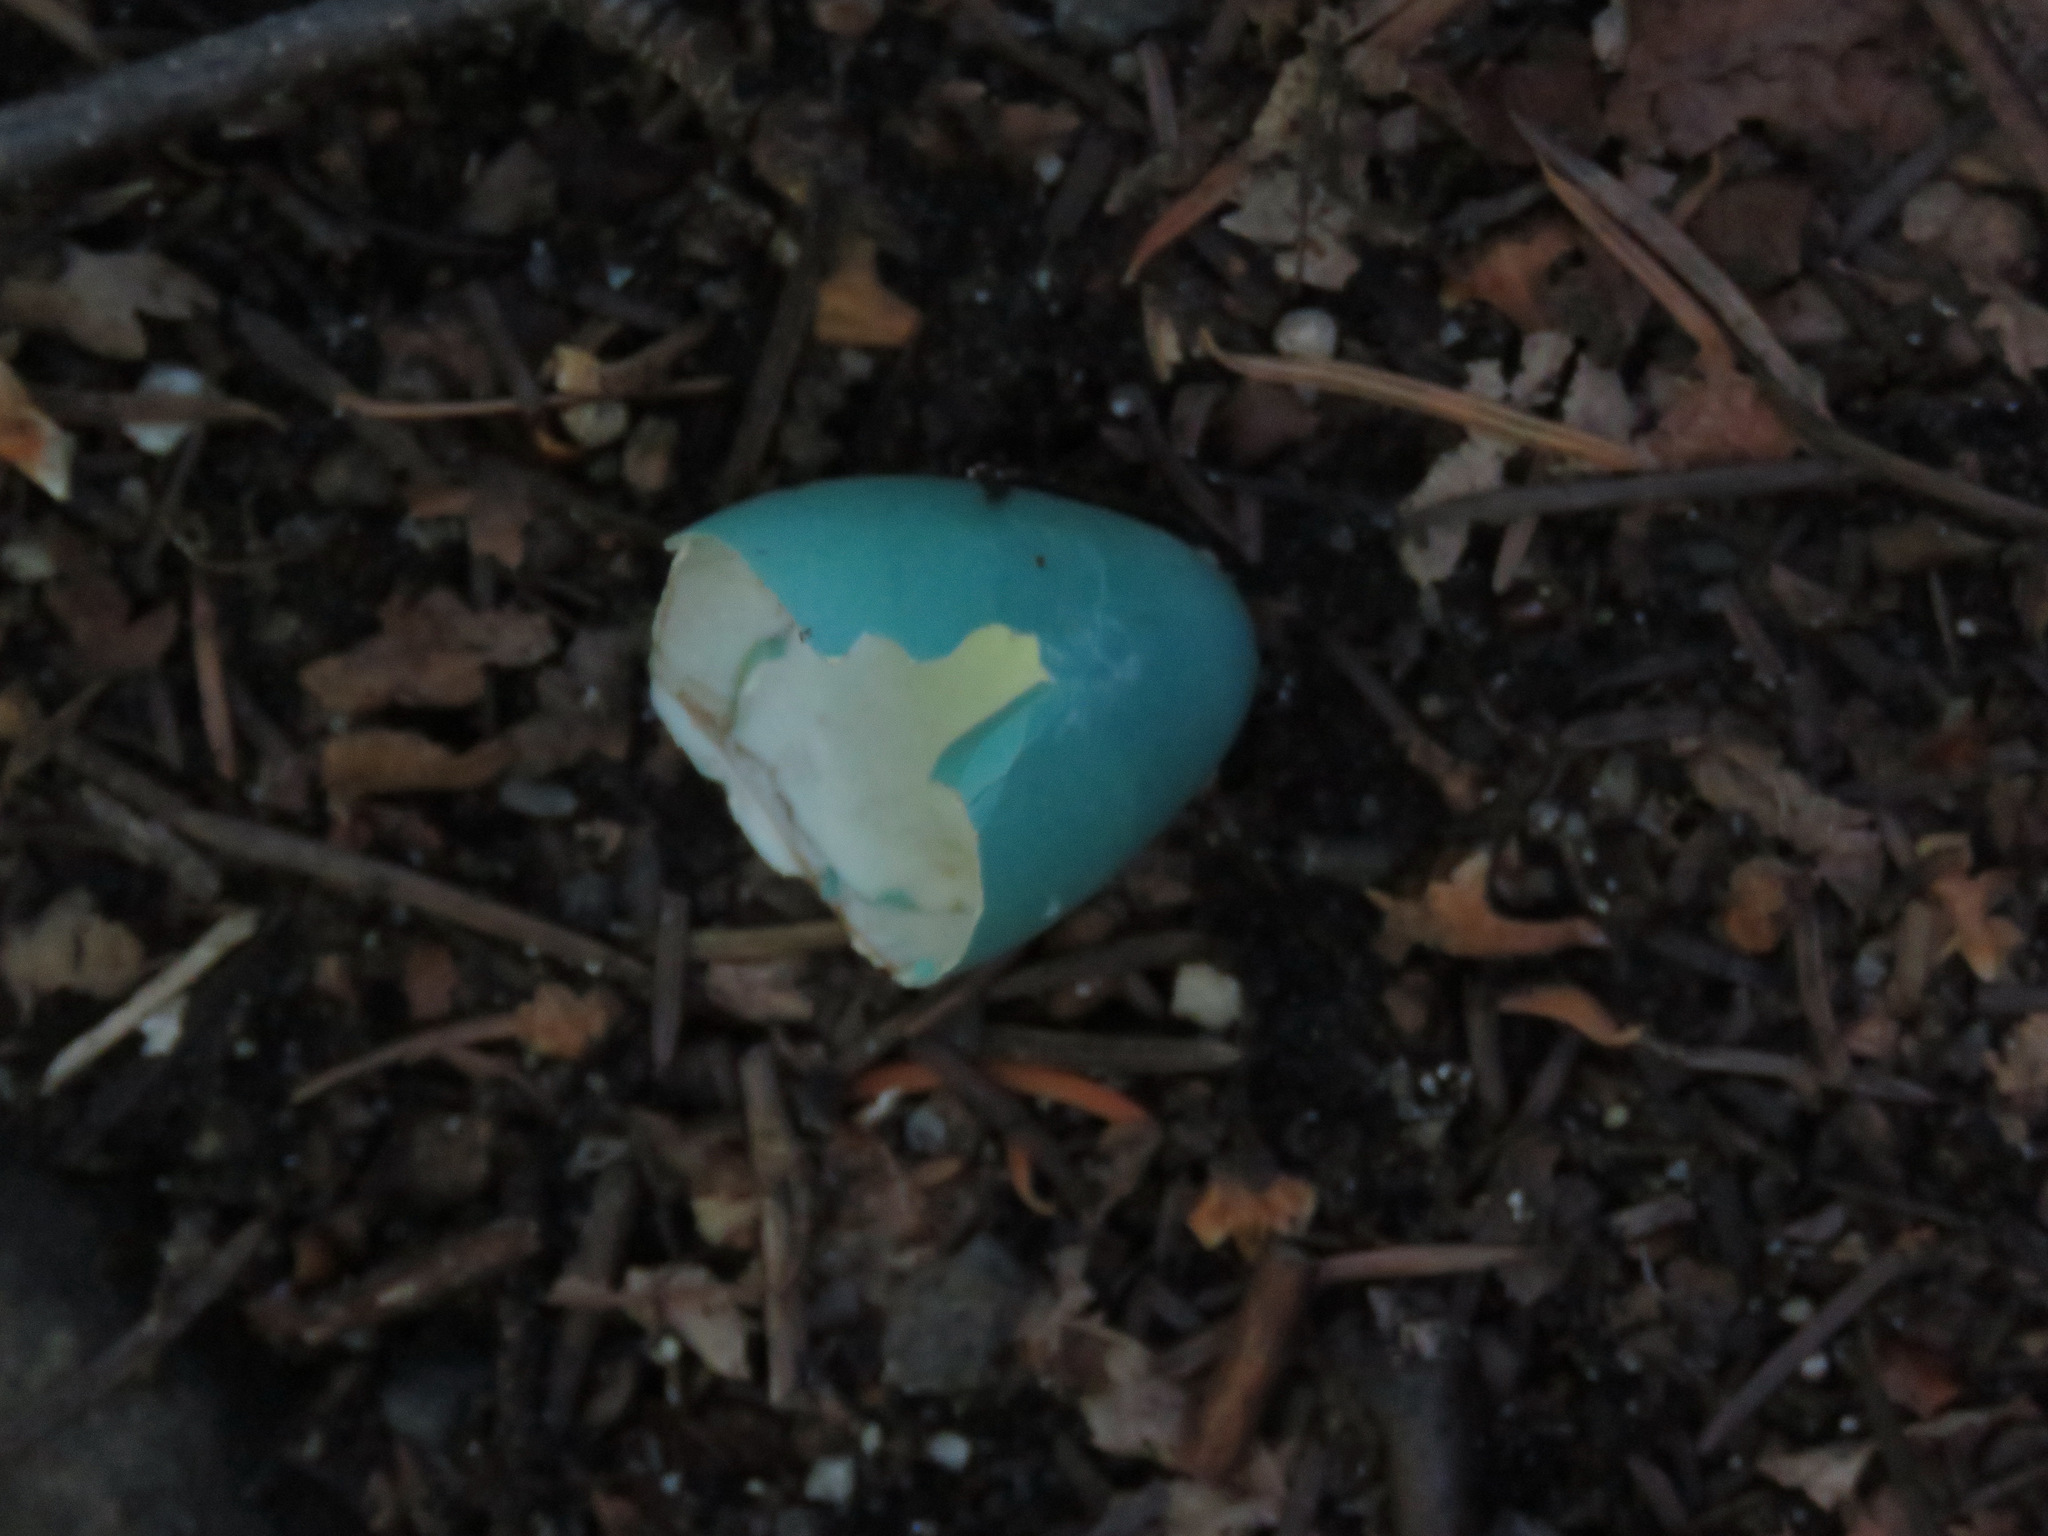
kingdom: Animalia
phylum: Chordata
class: Aves
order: Passeriformes
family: Turdidae
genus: Turdus
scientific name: Turdus migratorius
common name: American robin
